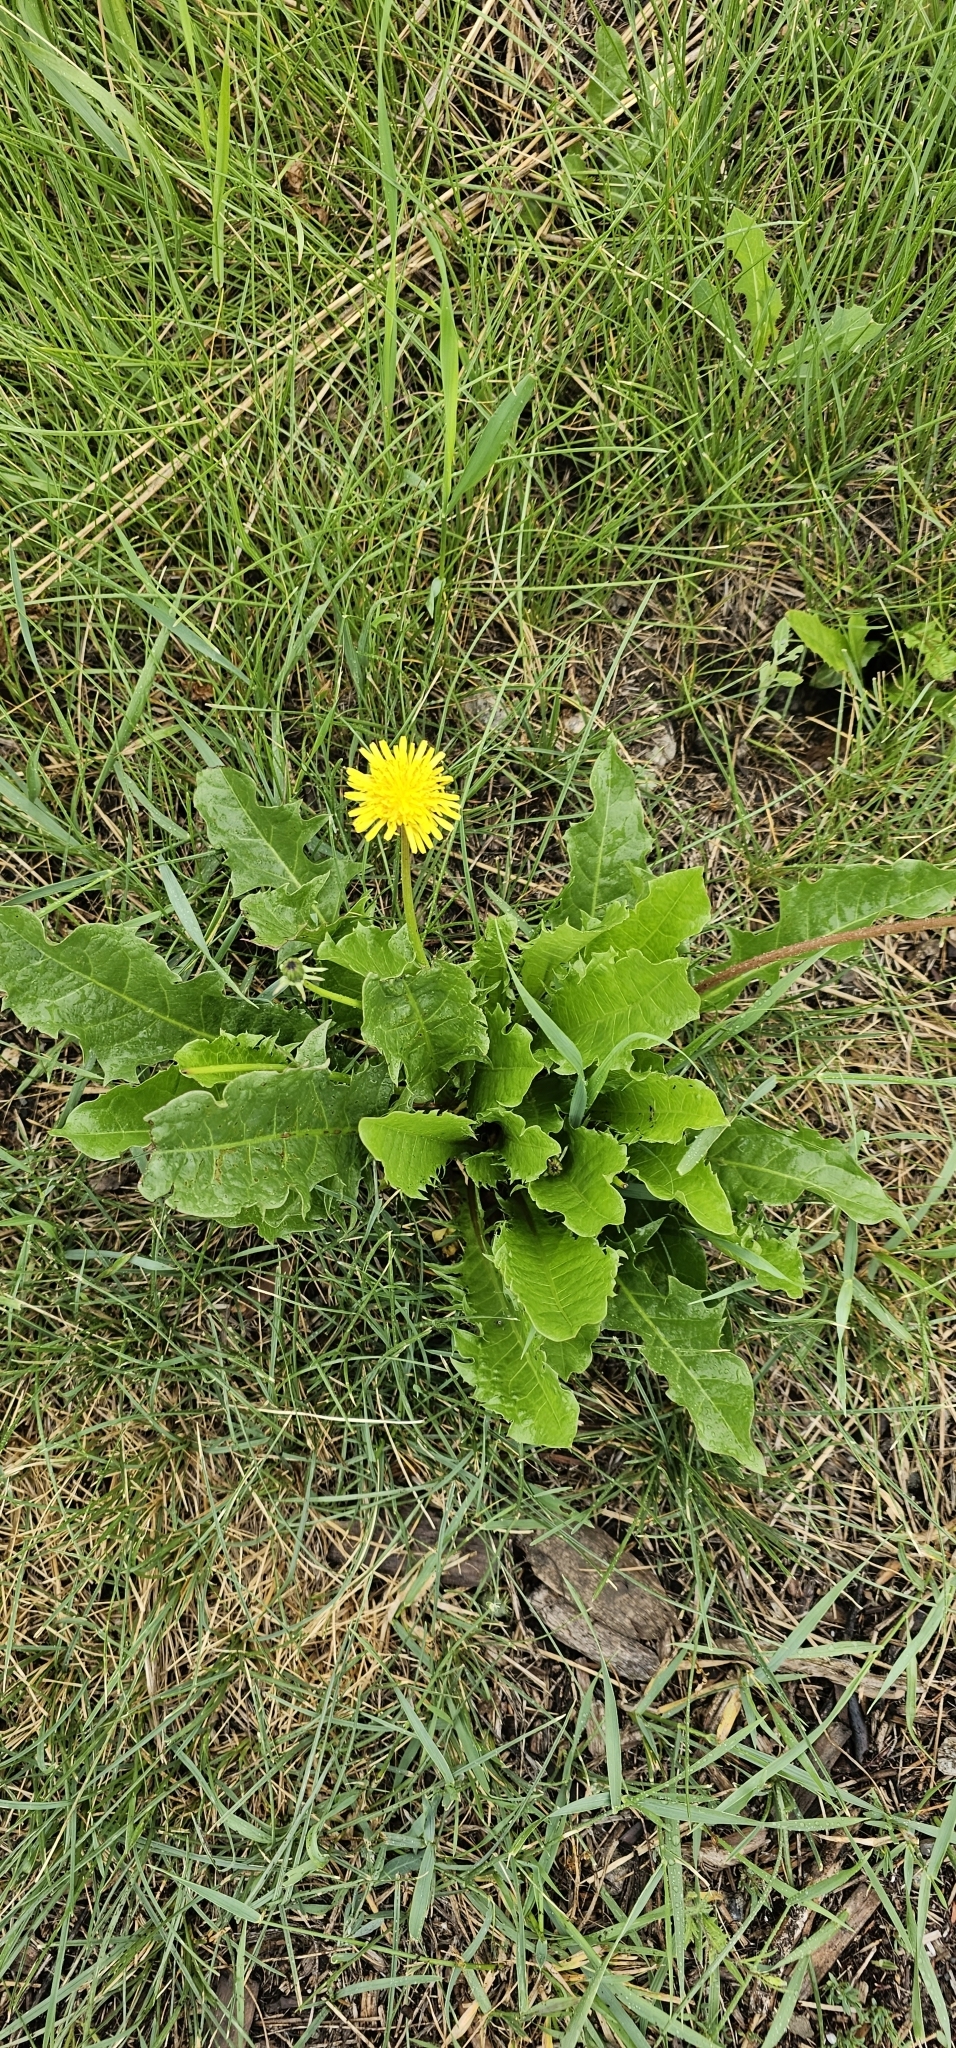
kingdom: Plantae
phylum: Tracheophyta
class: Magnoliopsida
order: Asterales
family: Asteraceae
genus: Taraxacum
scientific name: Taraxacum officinale
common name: Common dandelion
